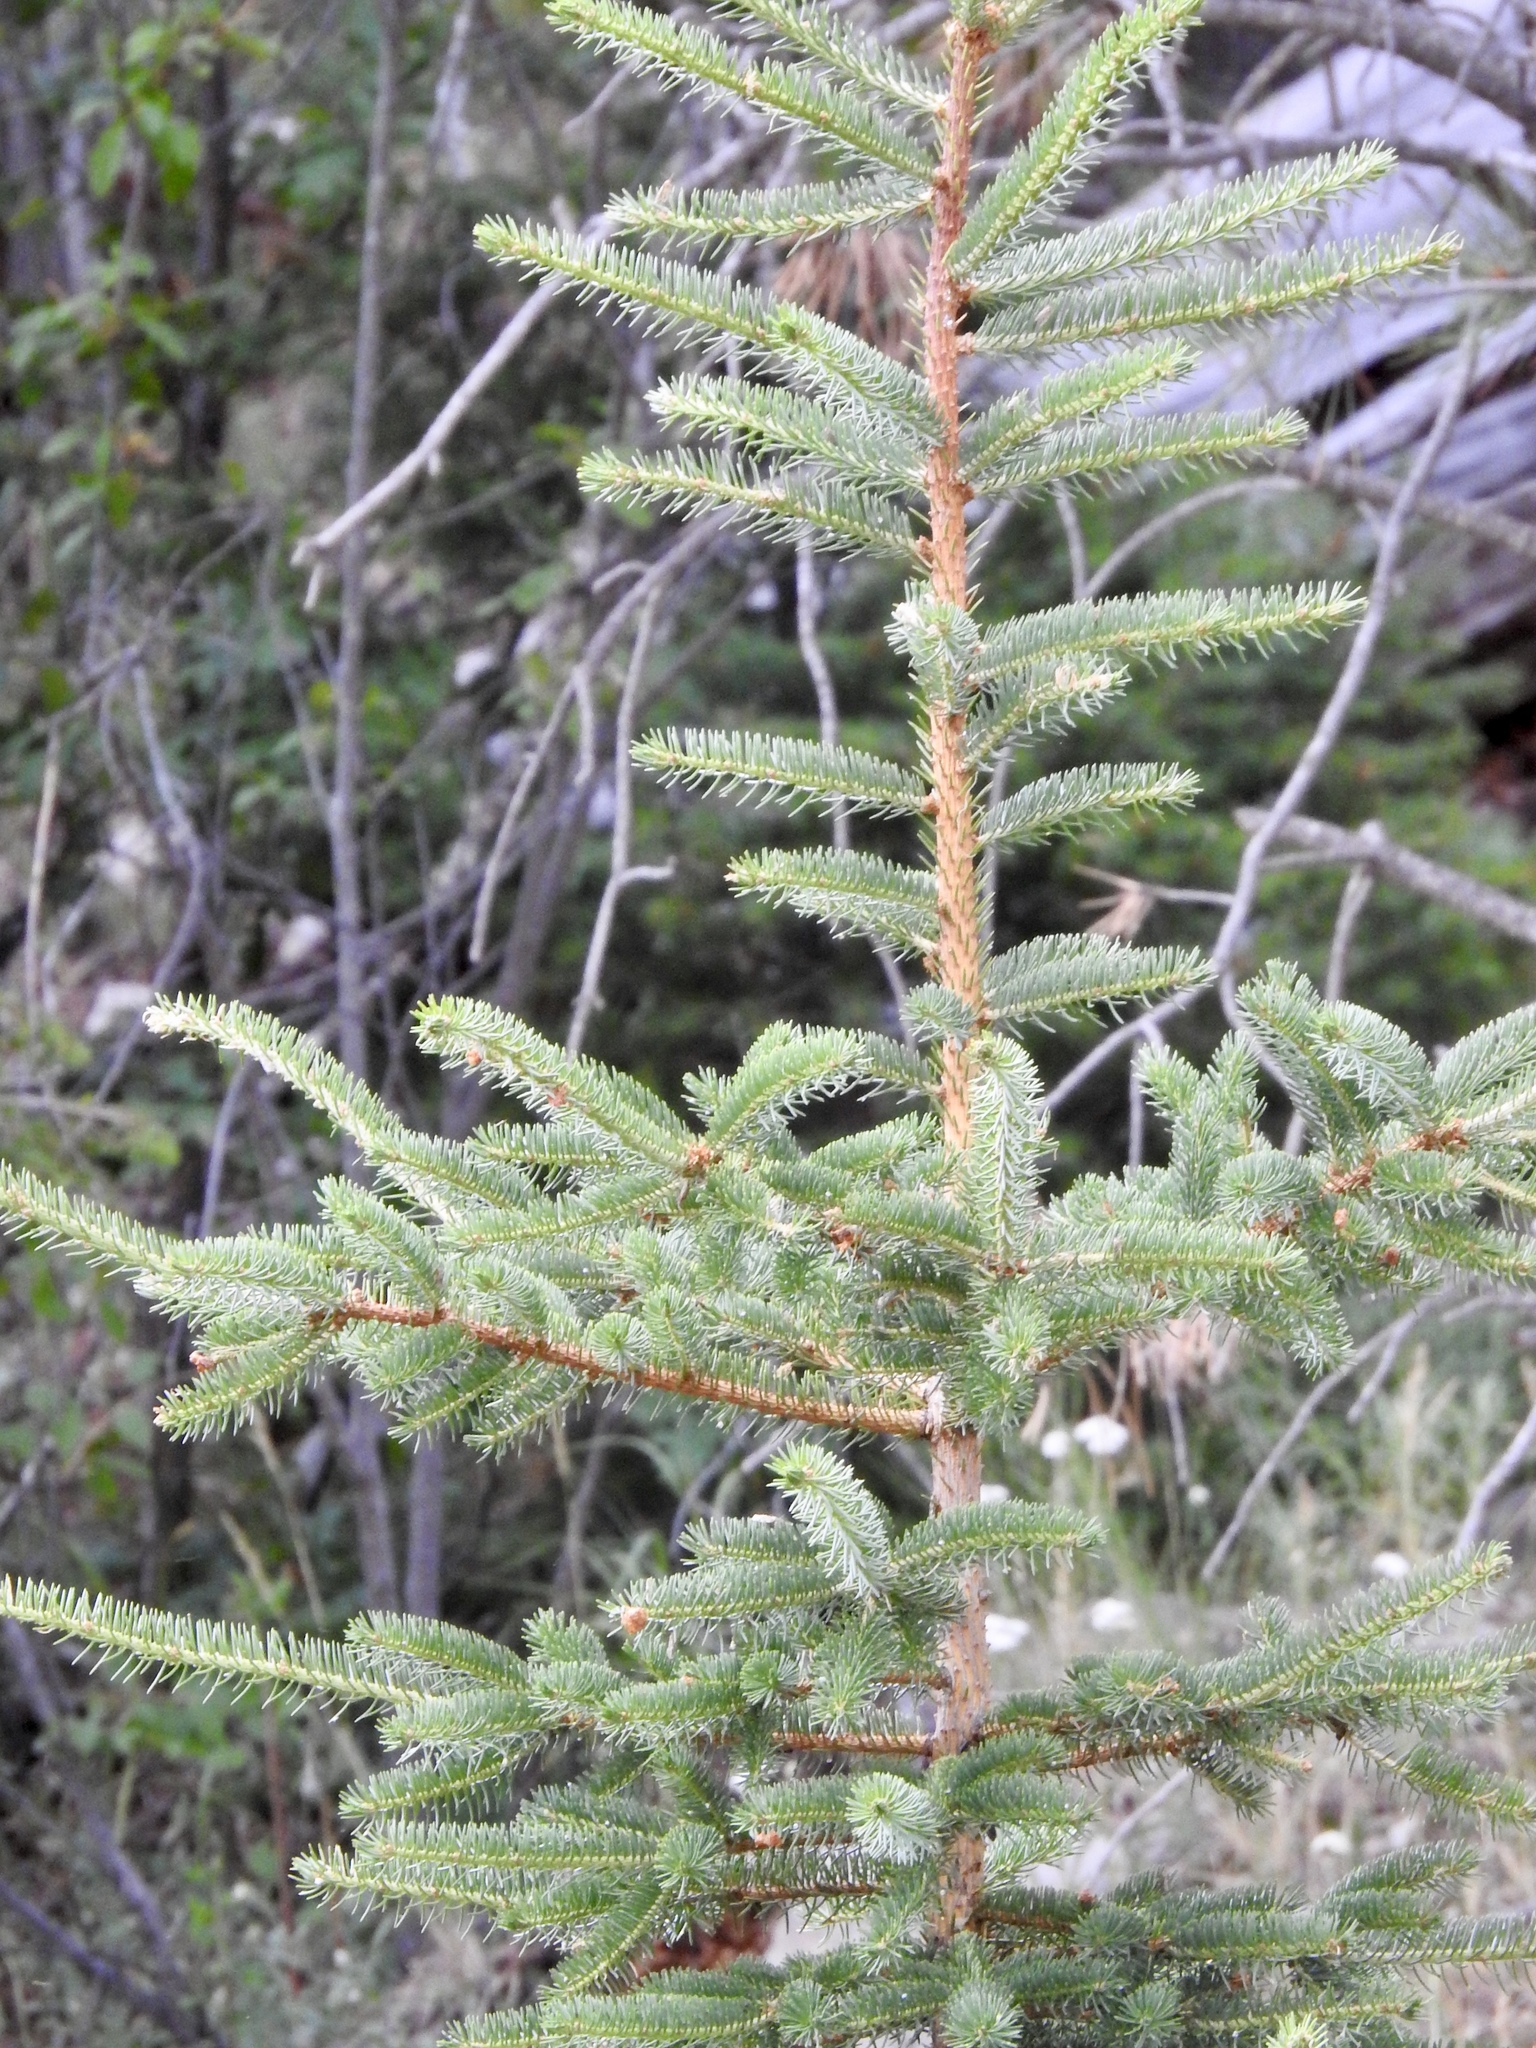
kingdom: Plantae
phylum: Tracheophyta
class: Pinopsida
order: Pinales
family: Pinaceae
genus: Picea
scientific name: Picea engelmannii
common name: Engelmann spruce
